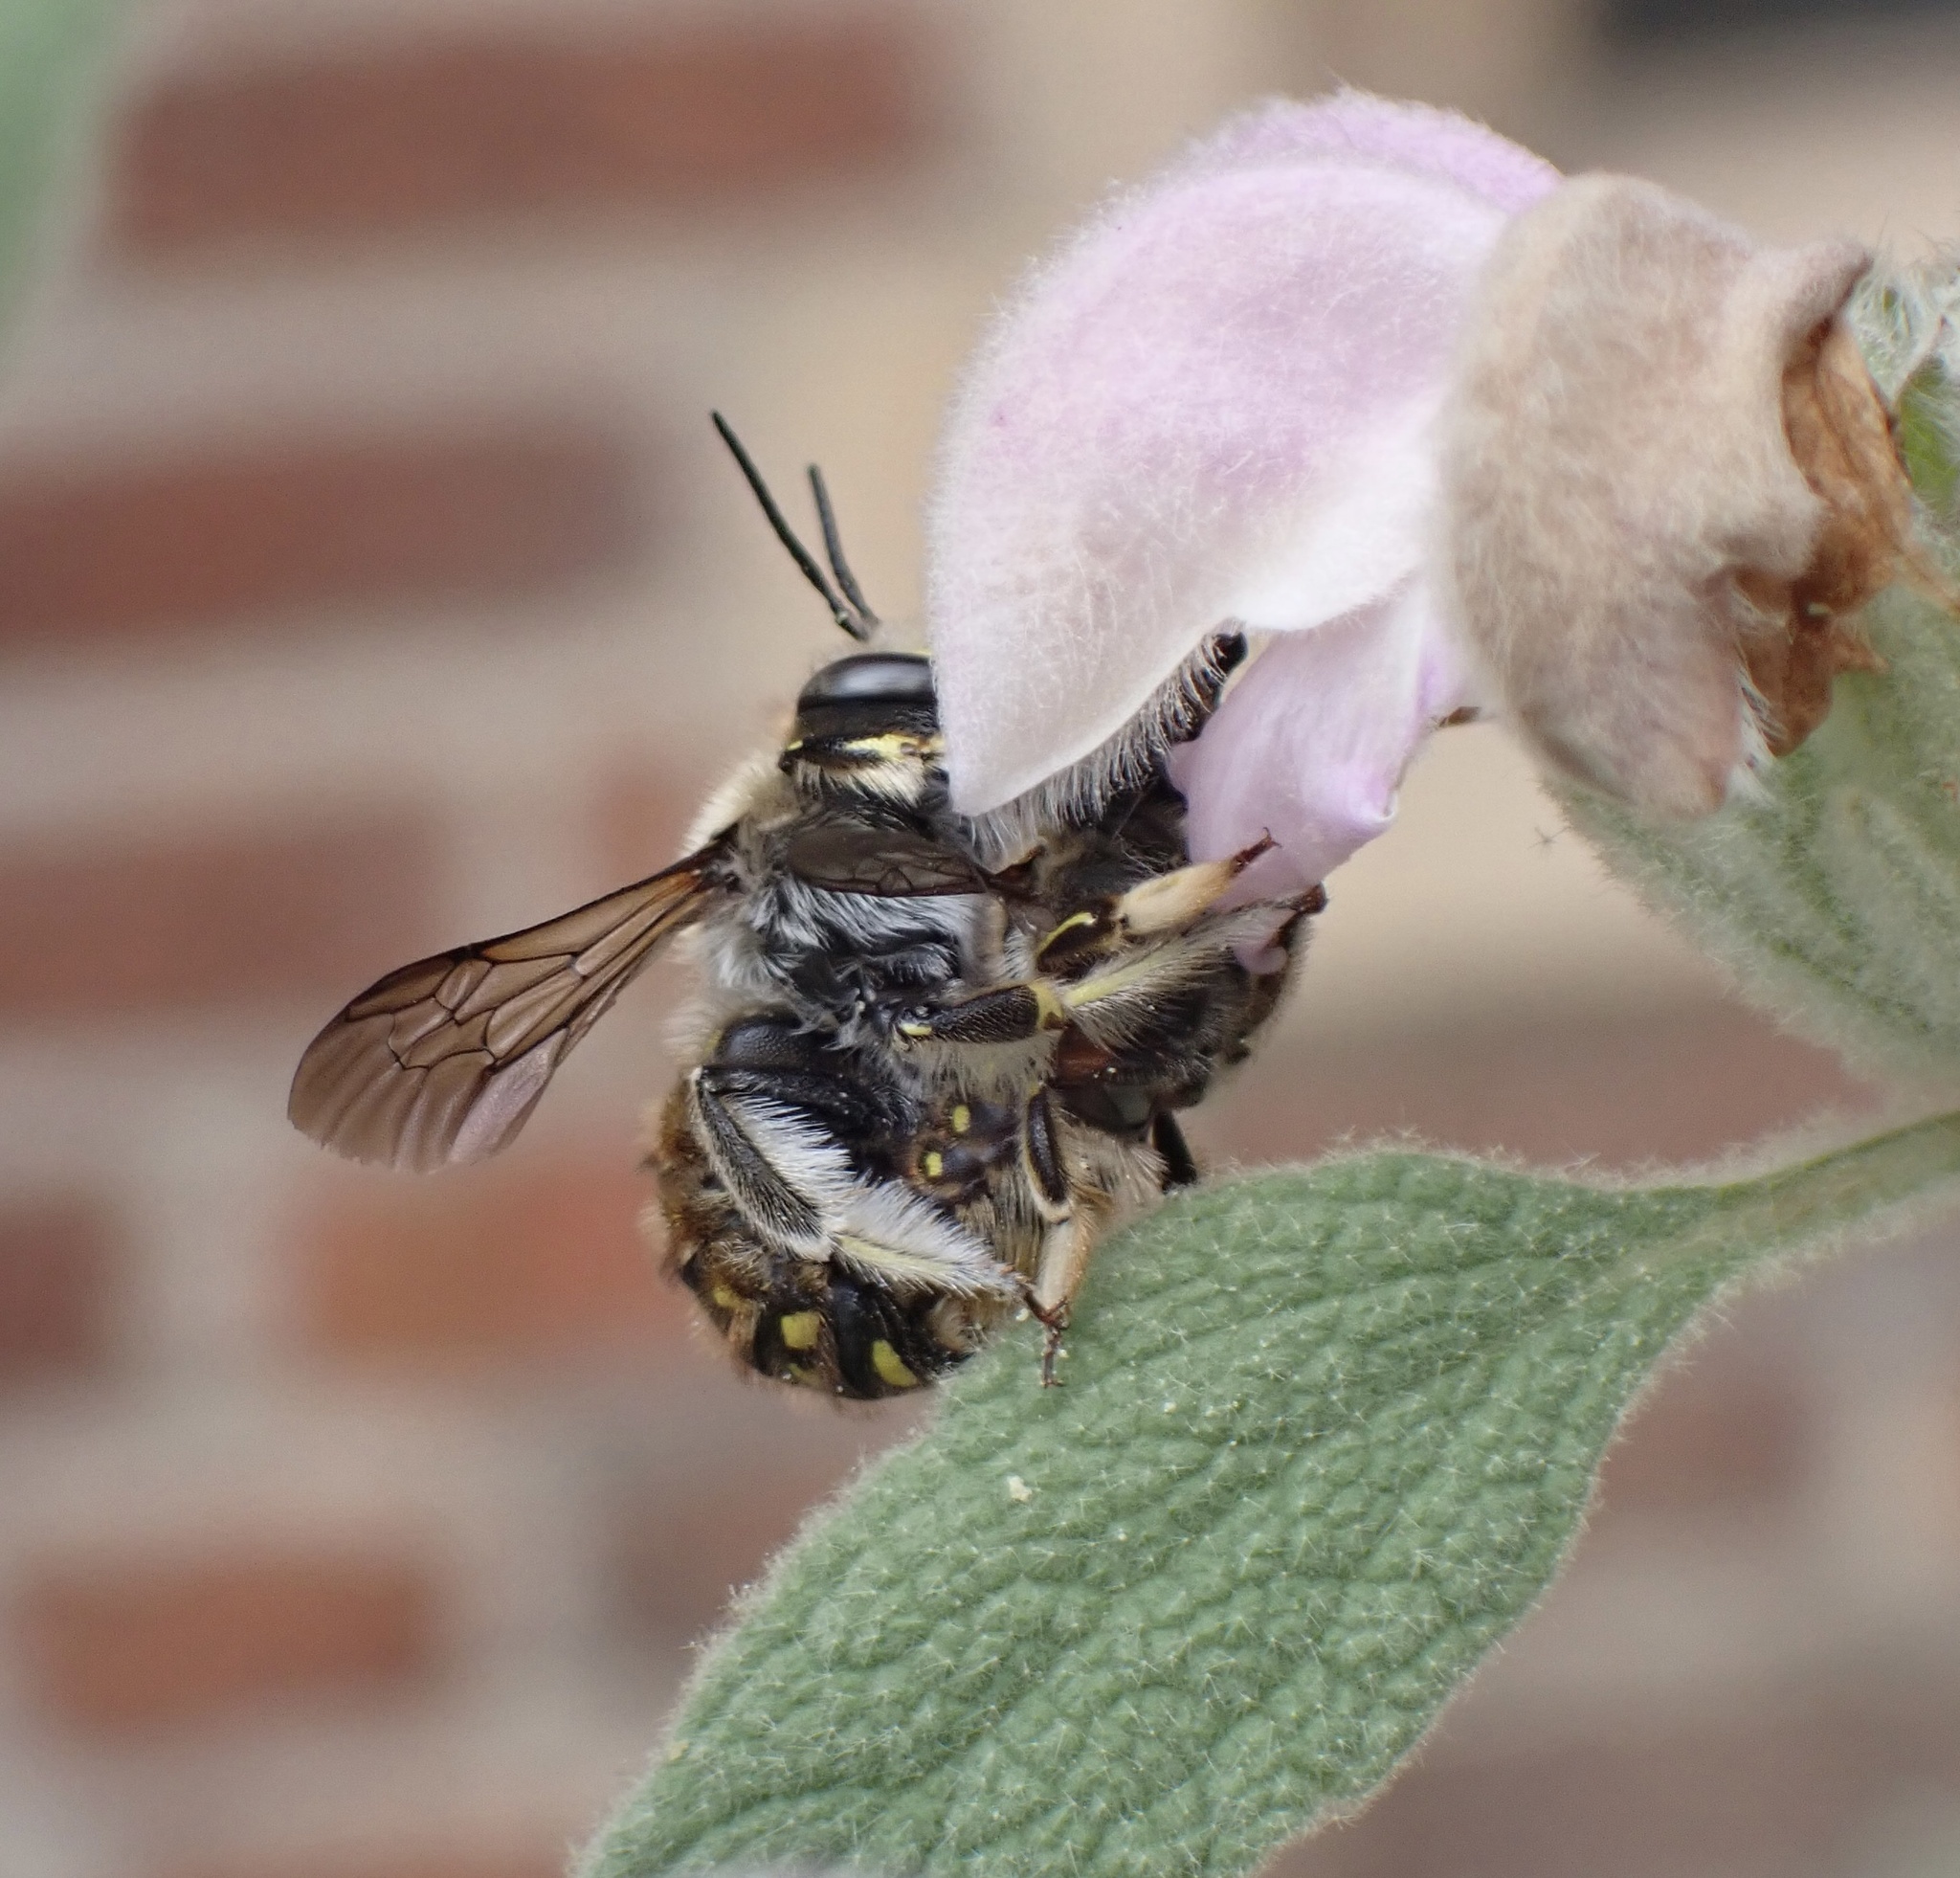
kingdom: Animalia
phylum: Arthropoda
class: Insecta
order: Hymenoptera
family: Megachilidae
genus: Anthidium
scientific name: Anthidium manicatum
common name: Wool carder bee
